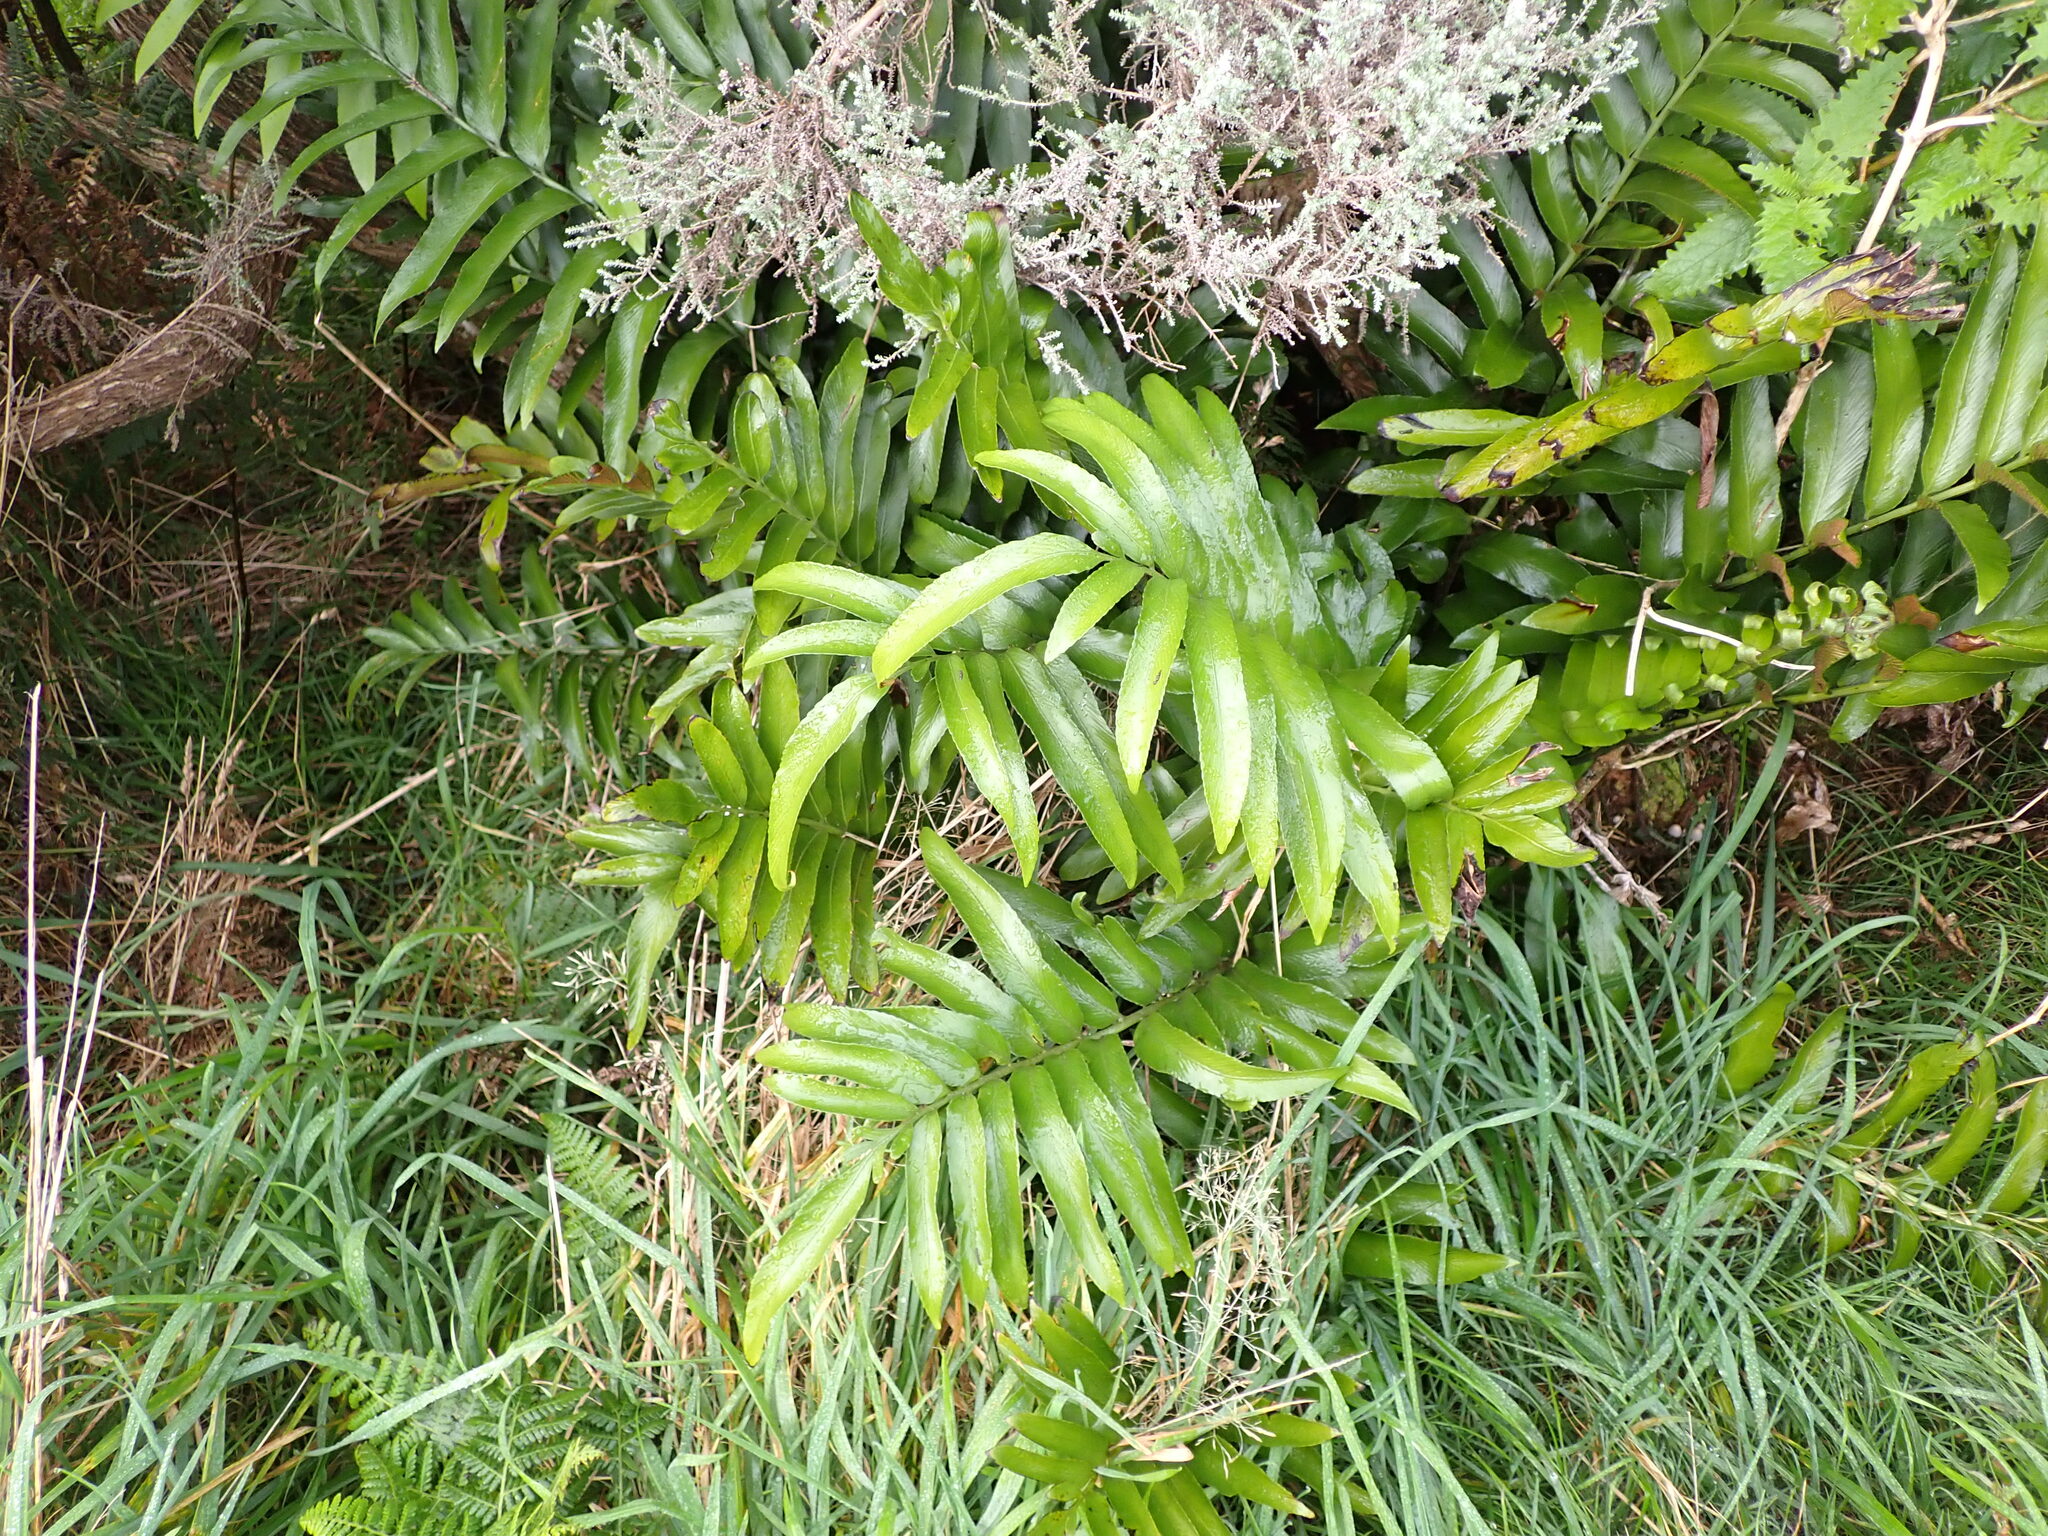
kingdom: Plantae
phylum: Tracheophyta
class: Polypodiopsida
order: Polypodiales
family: Aspleniaceae
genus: Asplenium
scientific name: Asplenium oblongifolium
